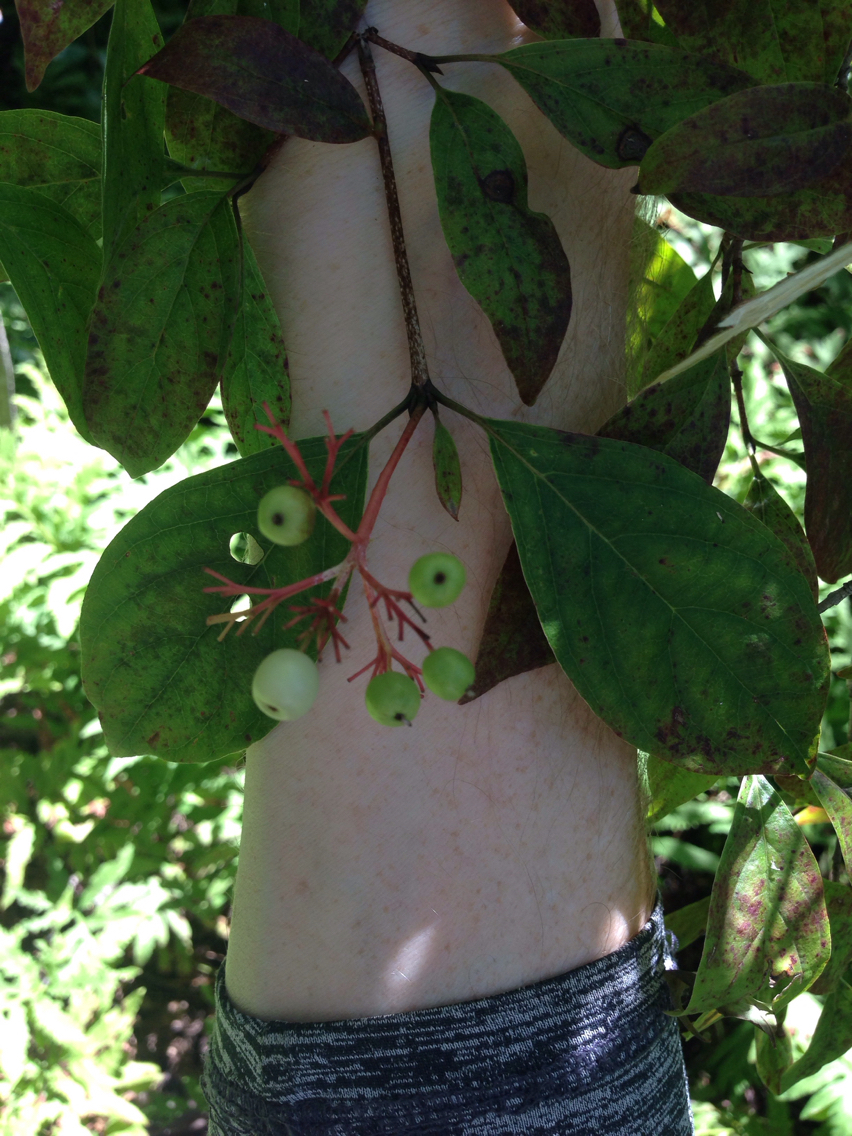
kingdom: Plantae
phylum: Tracheophyta
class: Magnoliopsida
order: Cornales
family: Cornaceae
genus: Cornus
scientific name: Cornus racemosa
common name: Panicled dogwood
